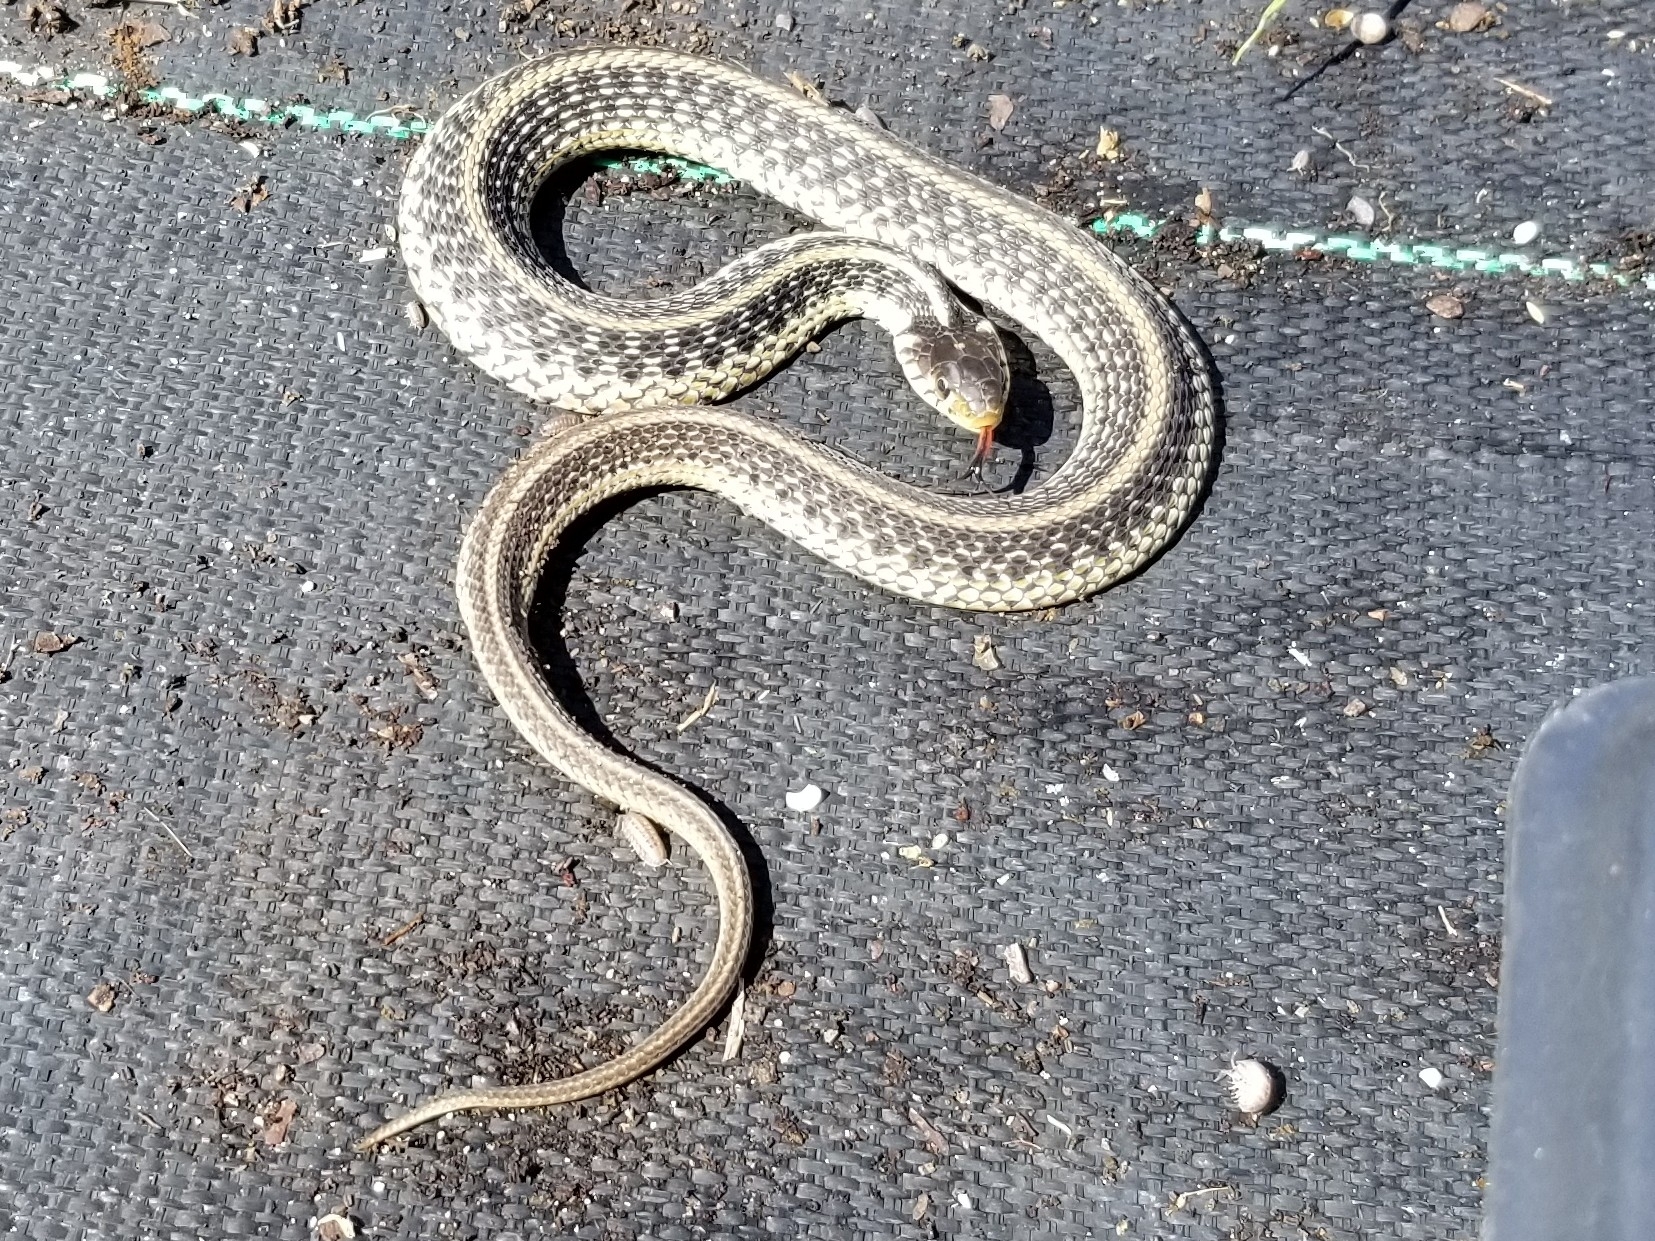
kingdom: Animalia
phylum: Chordata
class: Squamata
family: Colubridae
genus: Thamnophis
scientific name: Thamnophis sirtalis
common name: Common garter snake
